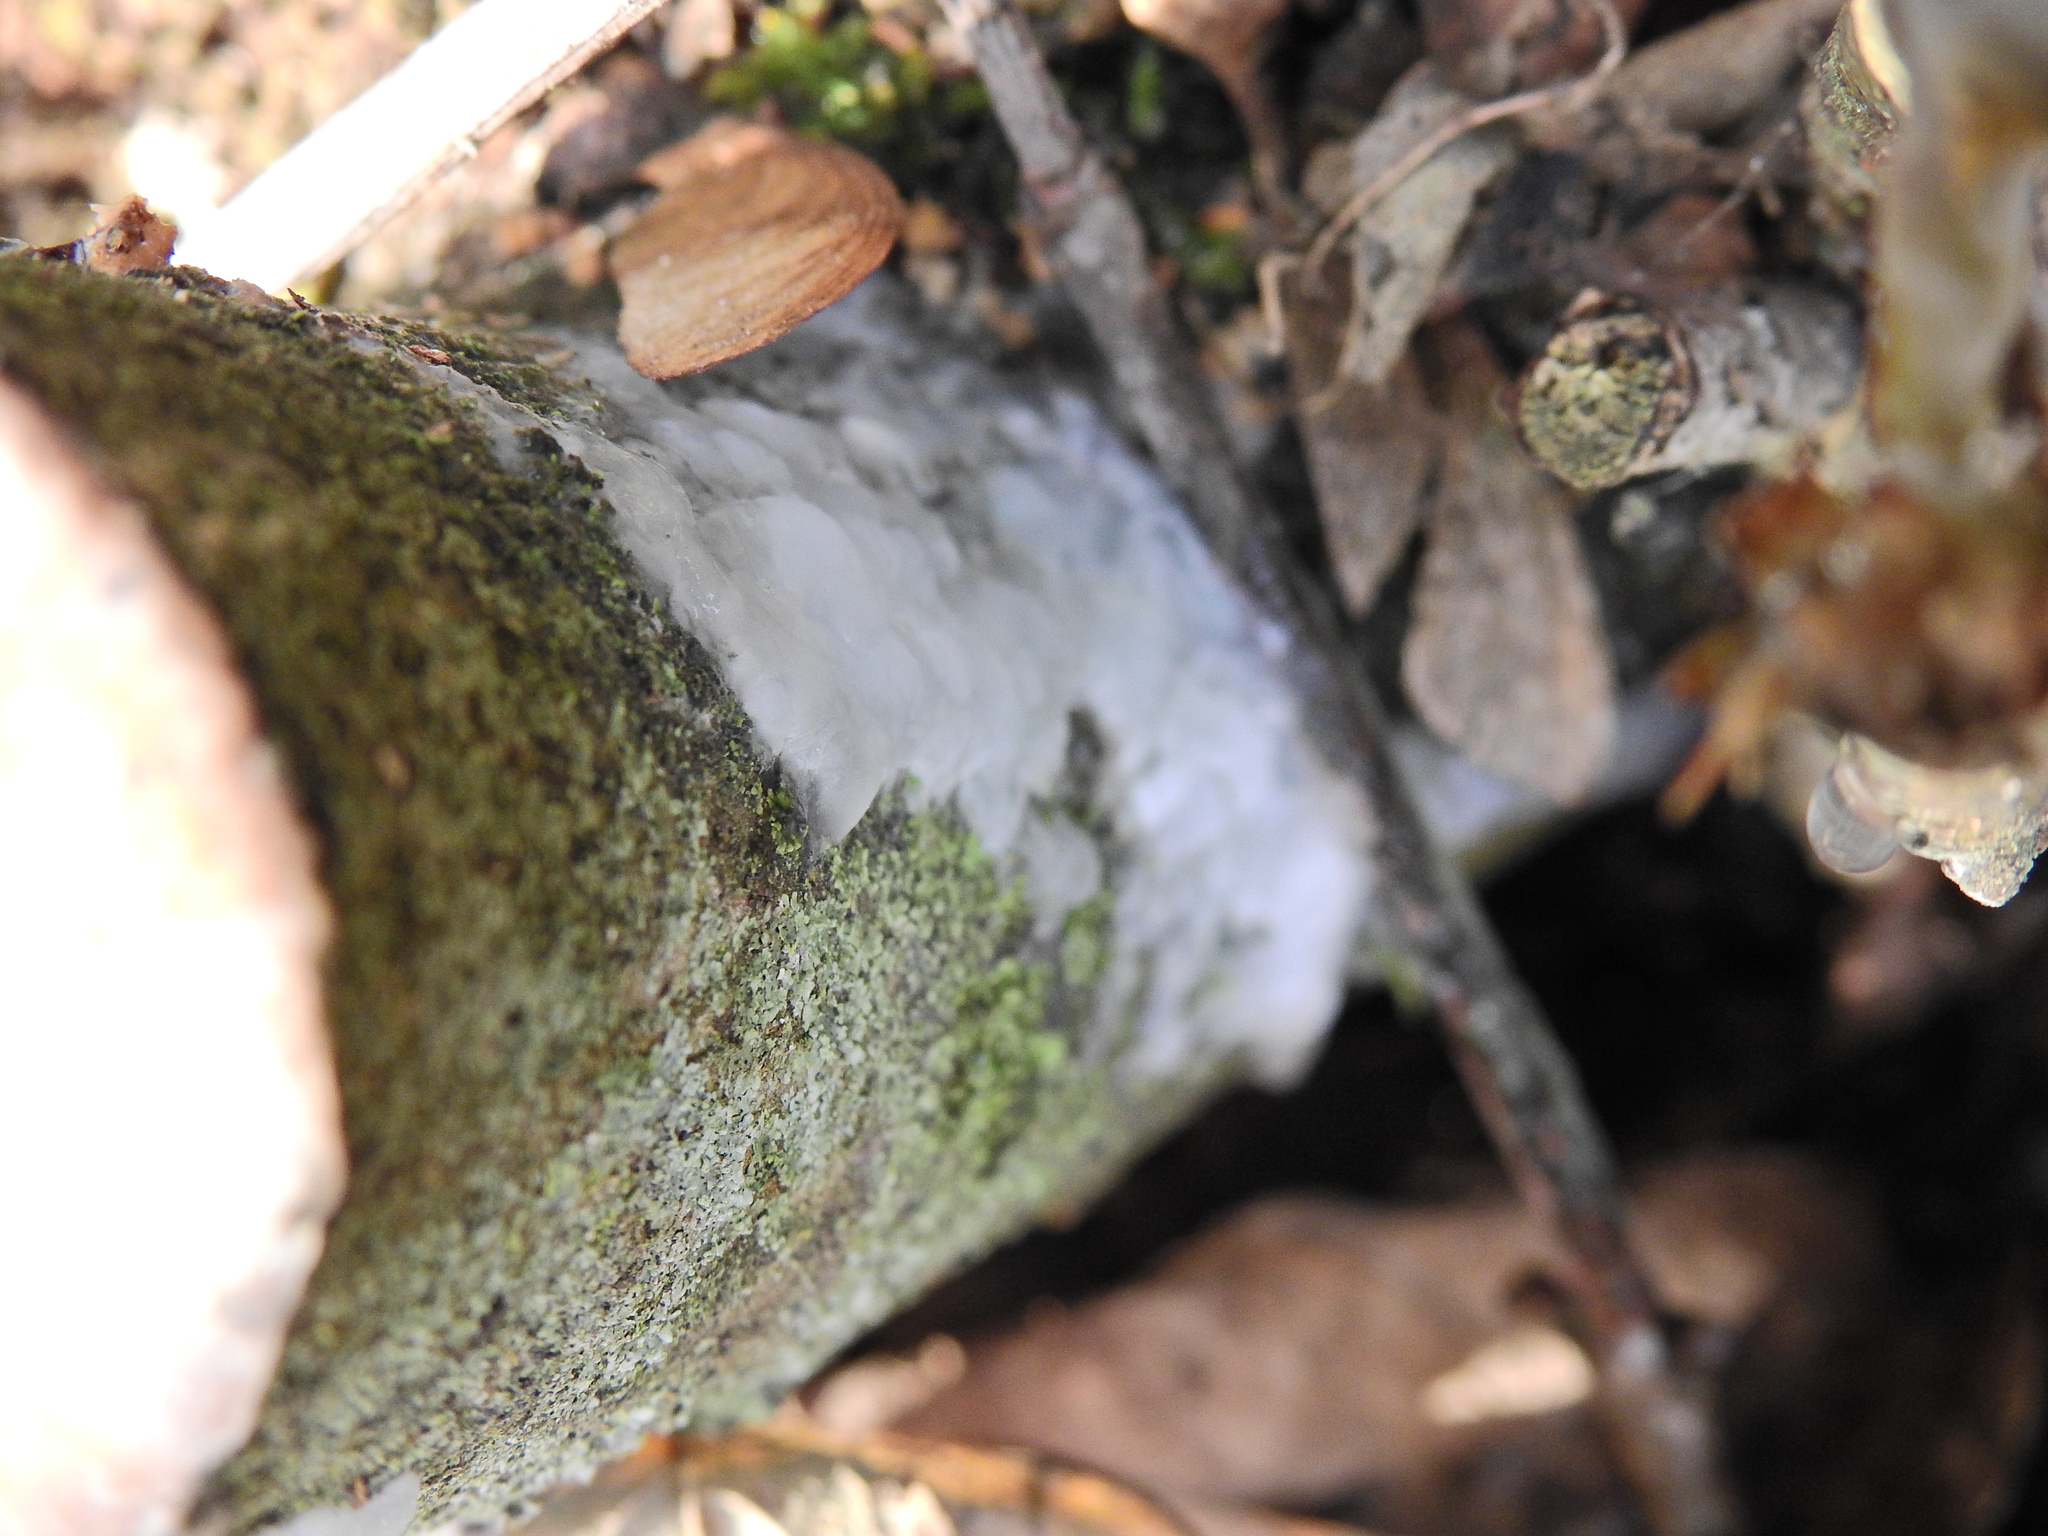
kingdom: Fungi
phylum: Basidiomycota
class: Agaricomycetes
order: Auriculariales
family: Auriculariaceae
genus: Exidia
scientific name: Exidia
